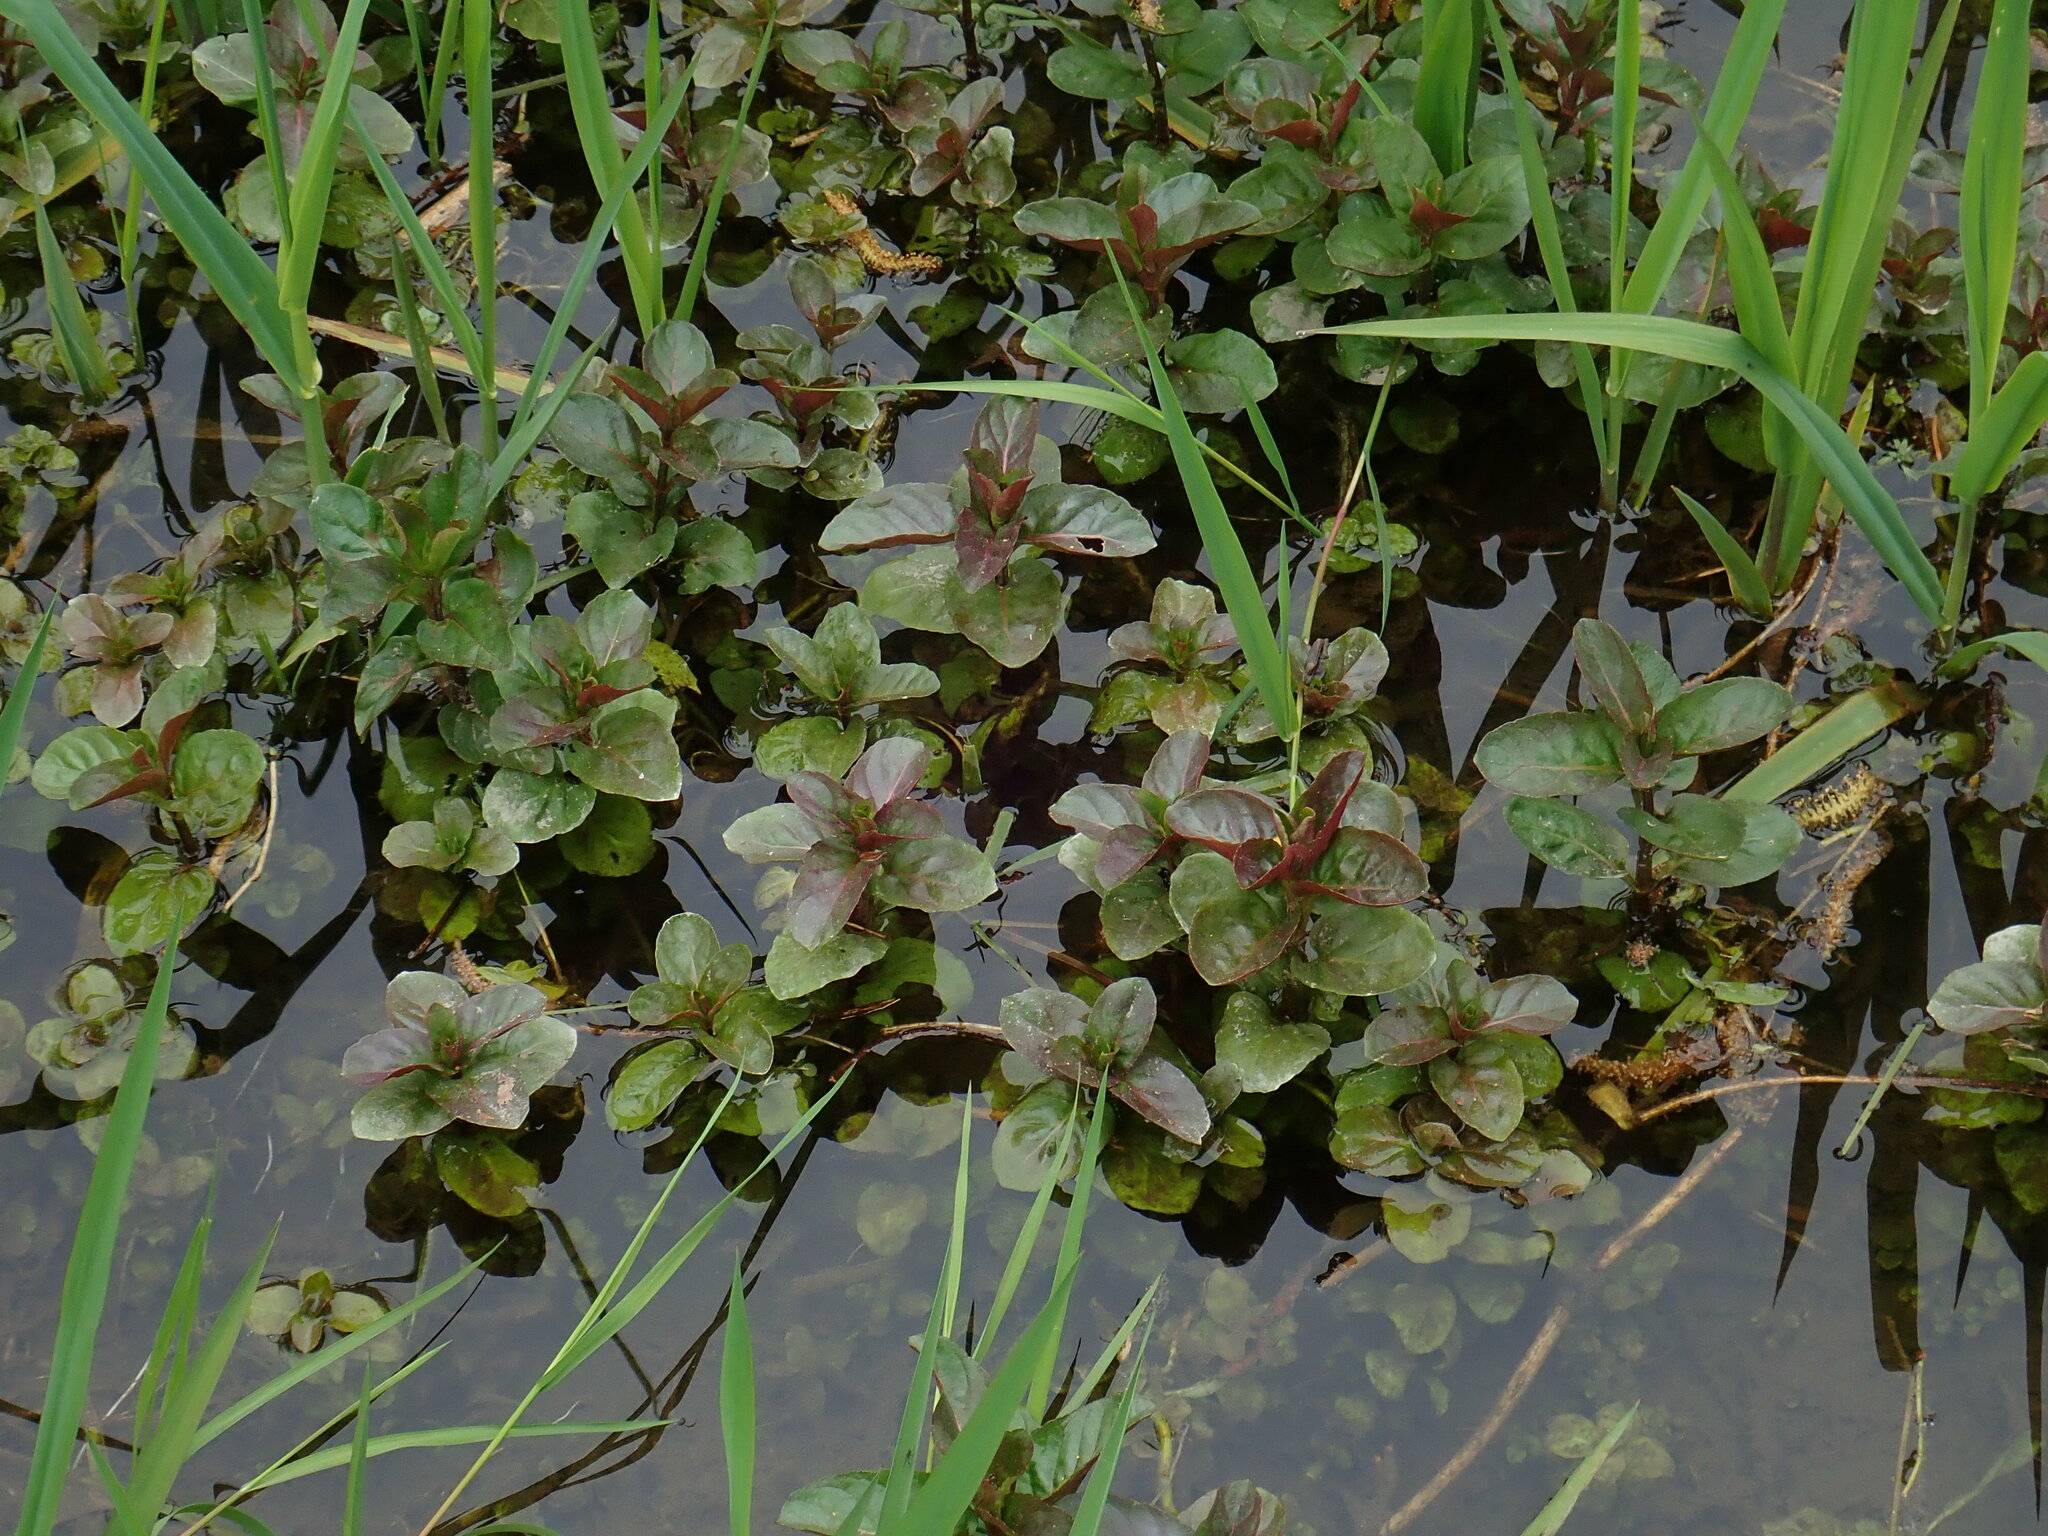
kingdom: Plantae
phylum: Tracheophyta
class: Magnoliopsida
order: Lamiales
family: Lamiaceae
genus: Mentha
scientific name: Mentha aquatica
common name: Water mint
